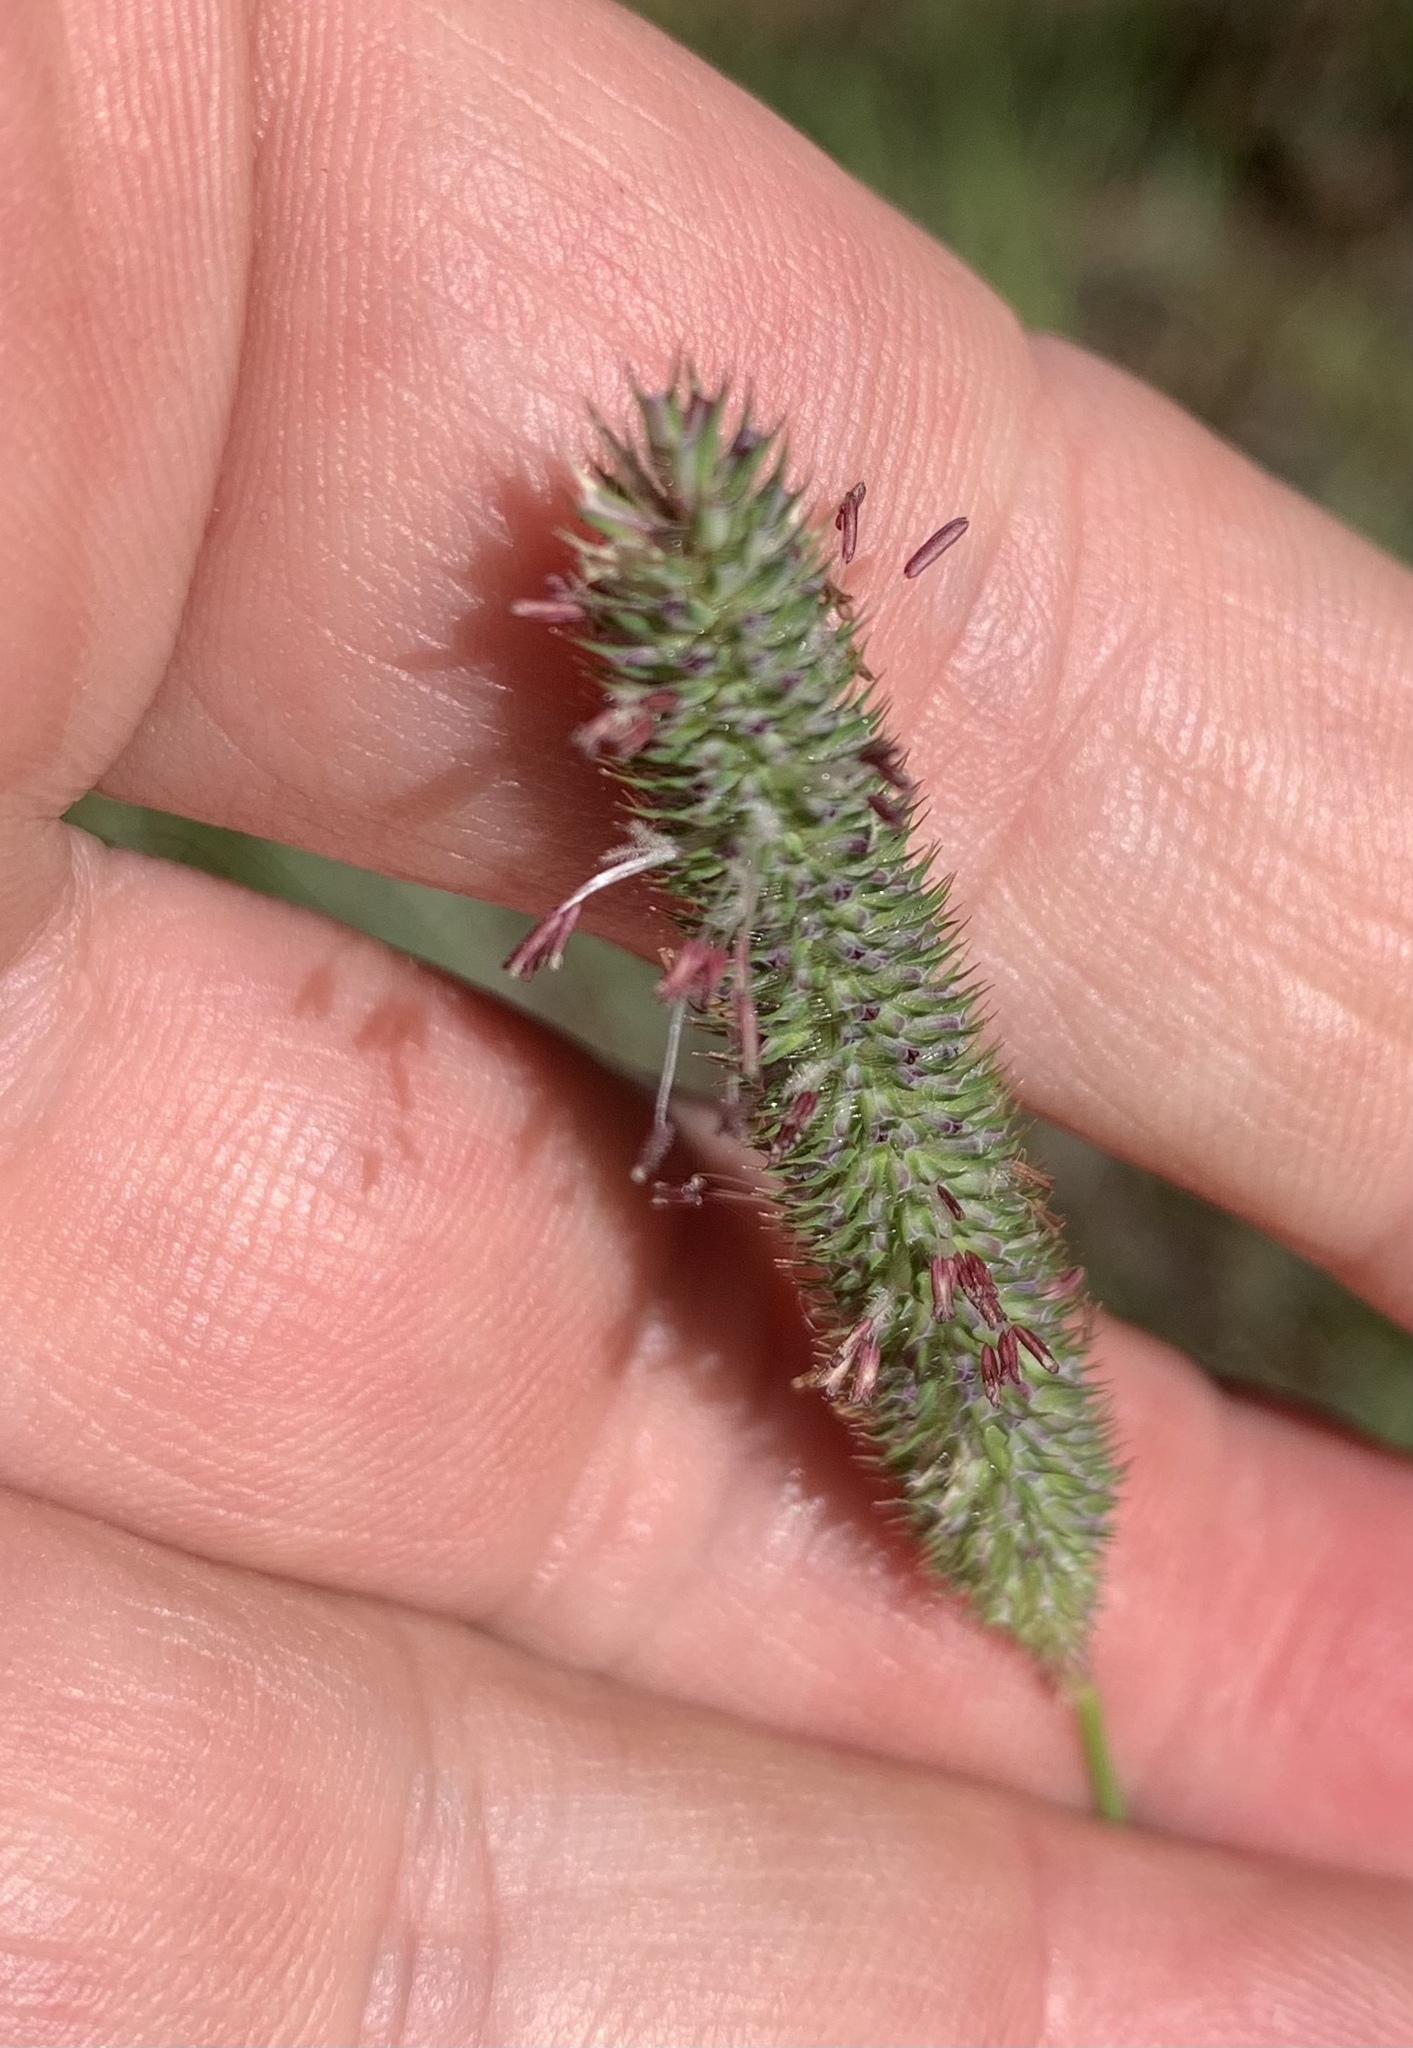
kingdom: Plantae
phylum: Tracheophyta
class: Liliopsida
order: Poales
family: Poaceae
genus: Phleum
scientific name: Phleum pratense
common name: Timothy grass
